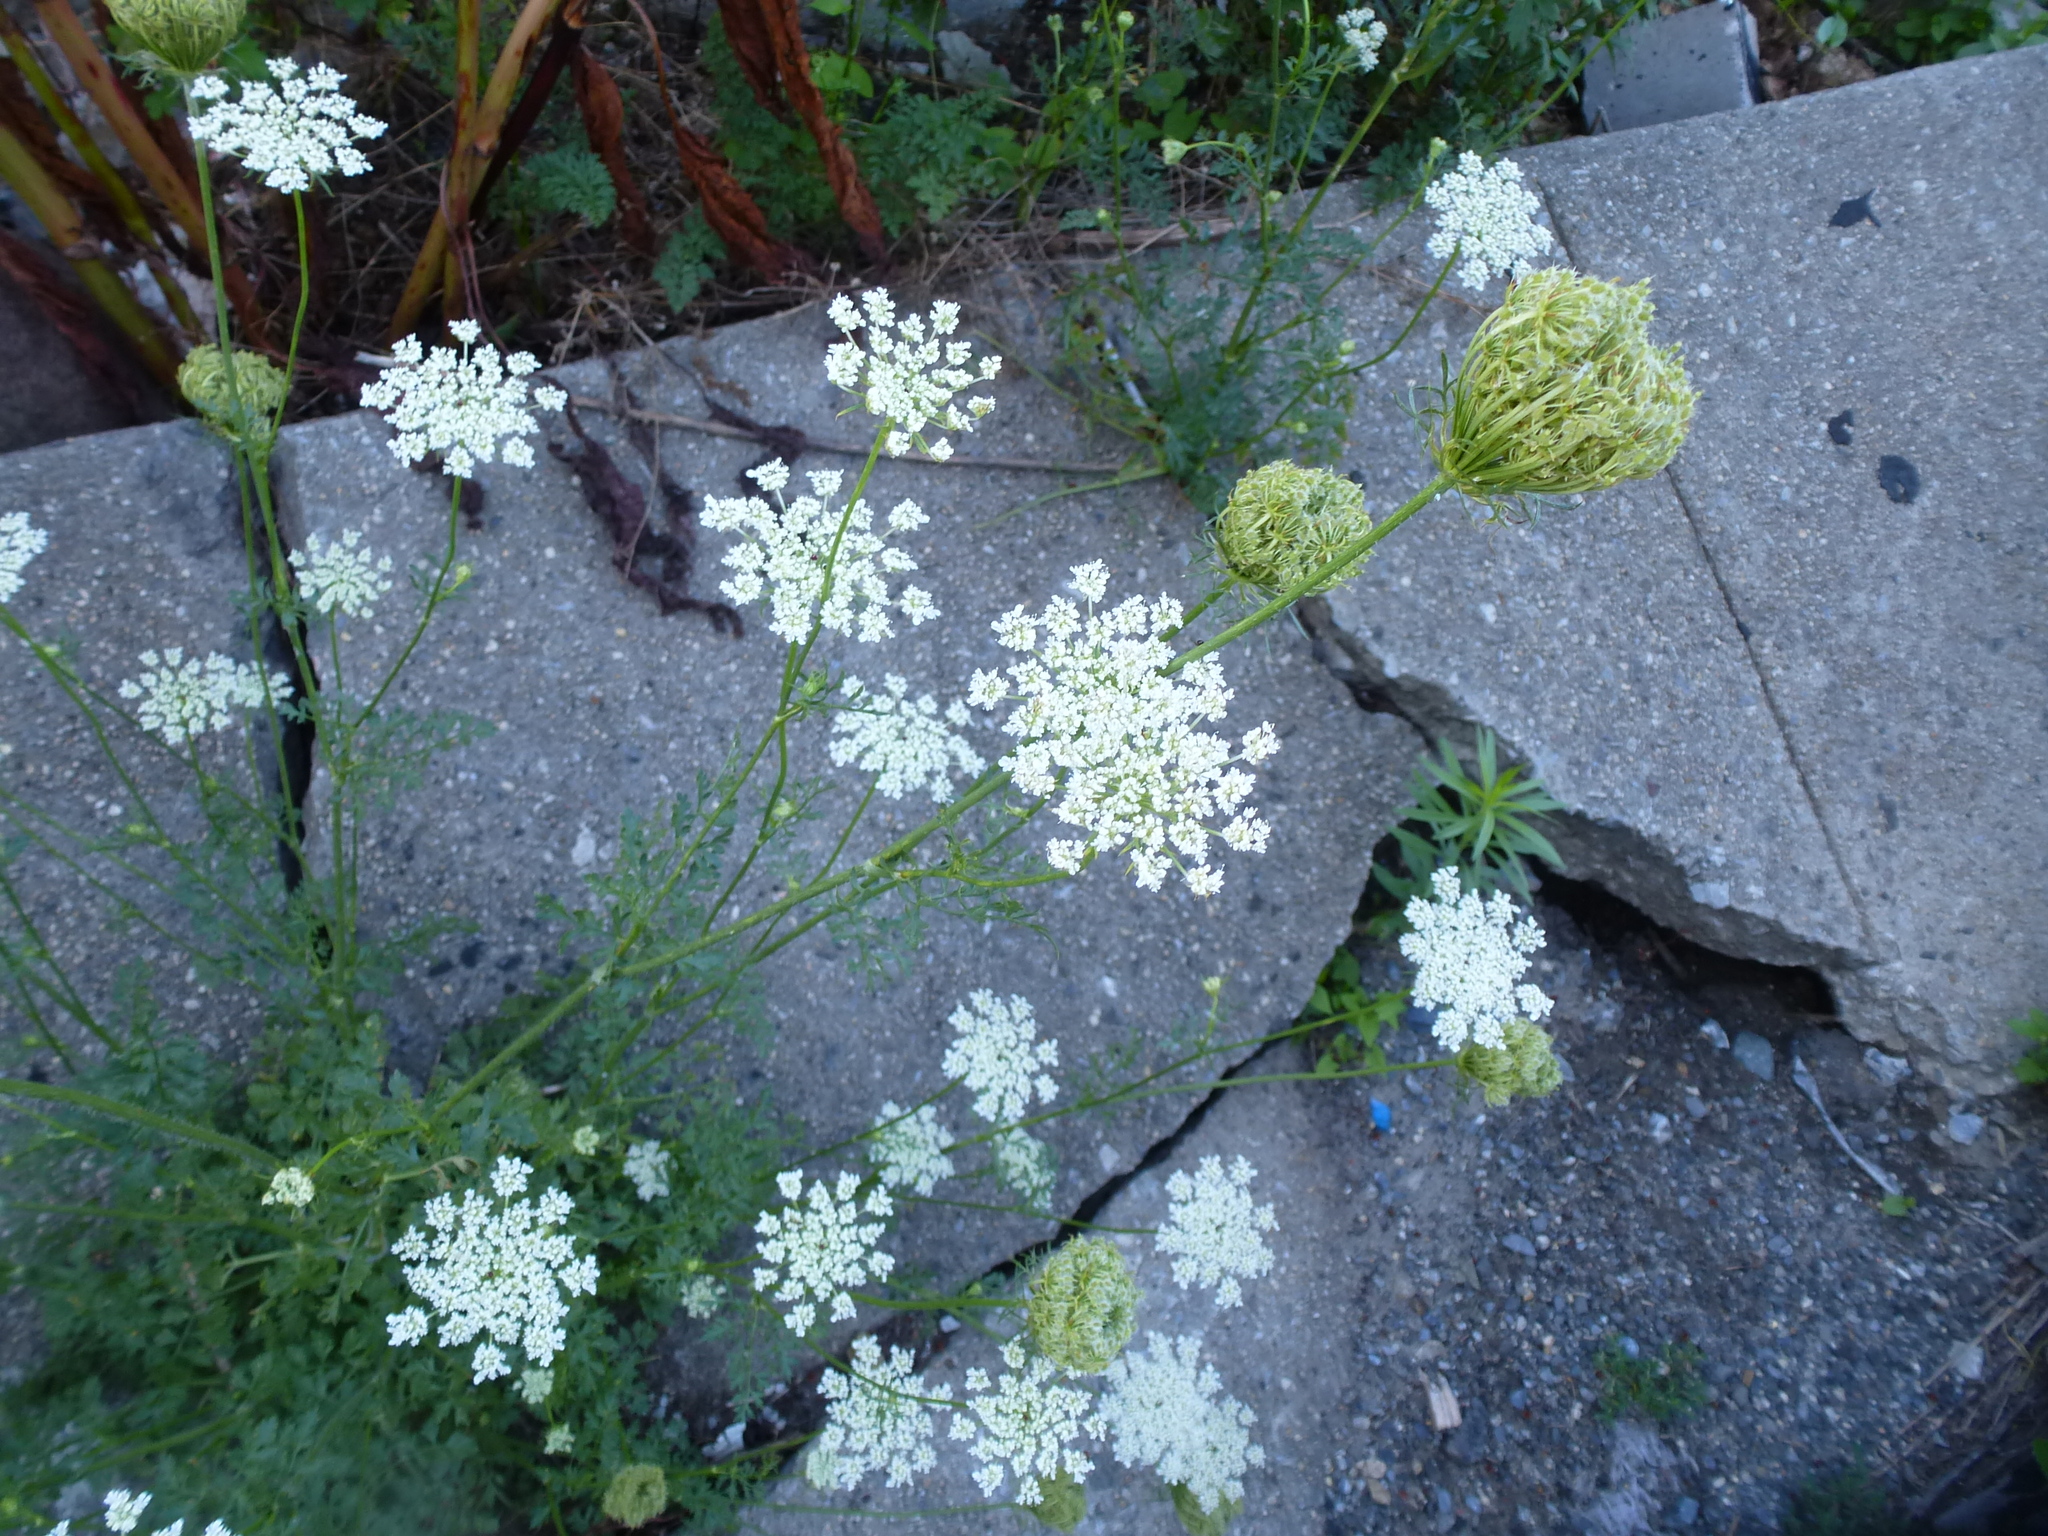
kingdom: Plantae
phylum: Tracheophyta
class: Magnoliopsida
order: Apiales
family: Apiaceae
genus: Daucus
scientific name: Daucus carota
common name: Wild carrot
